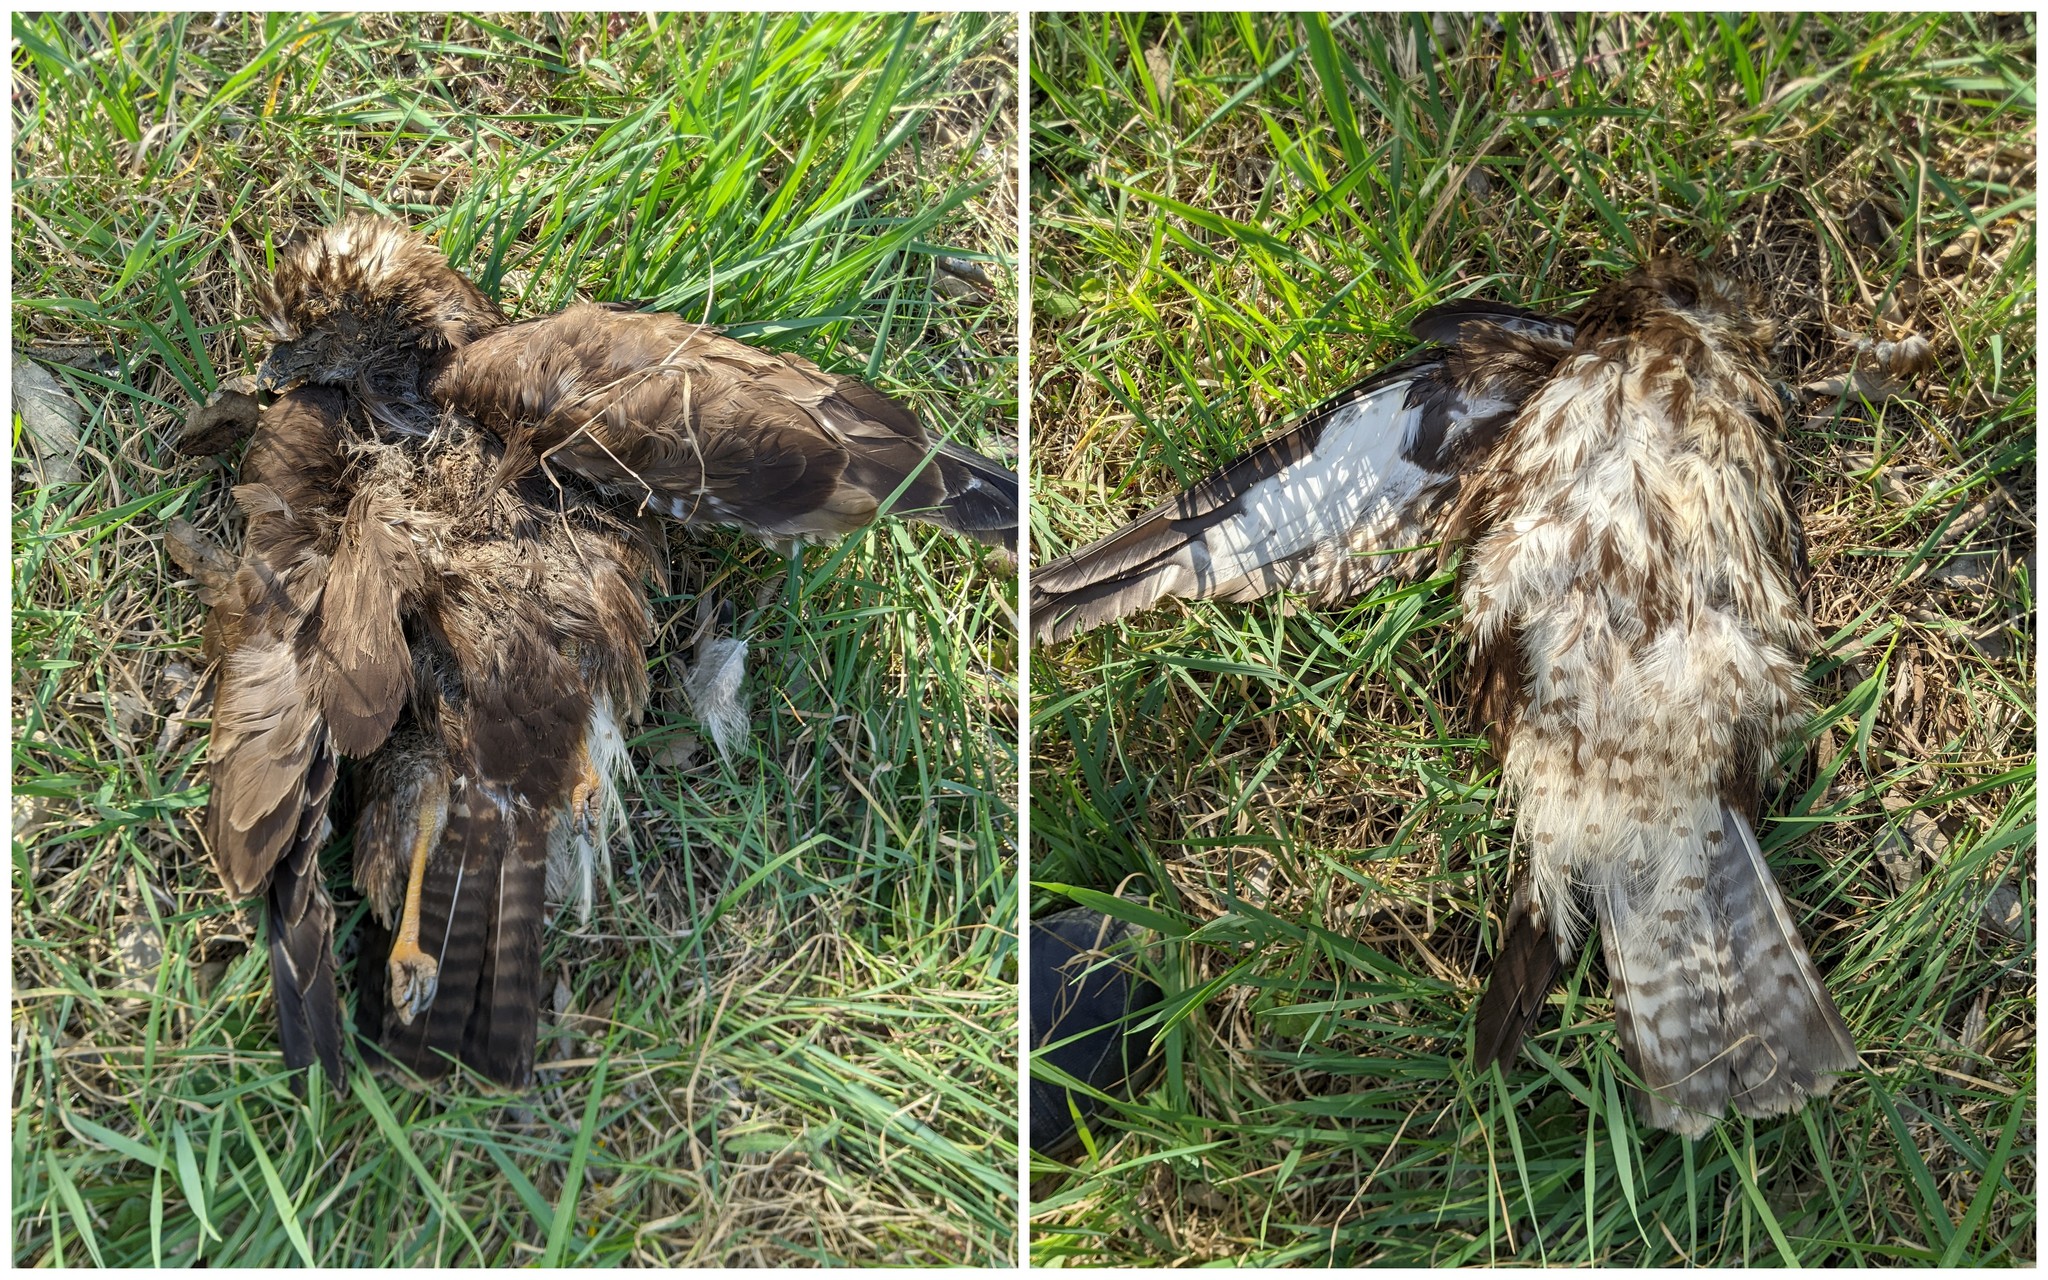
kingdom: Animalia
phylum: Chordata
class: Aves
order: Accipitriformes
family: Accipitridae
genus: Buteo
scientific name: Buteo buteo
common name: Common buzzard
